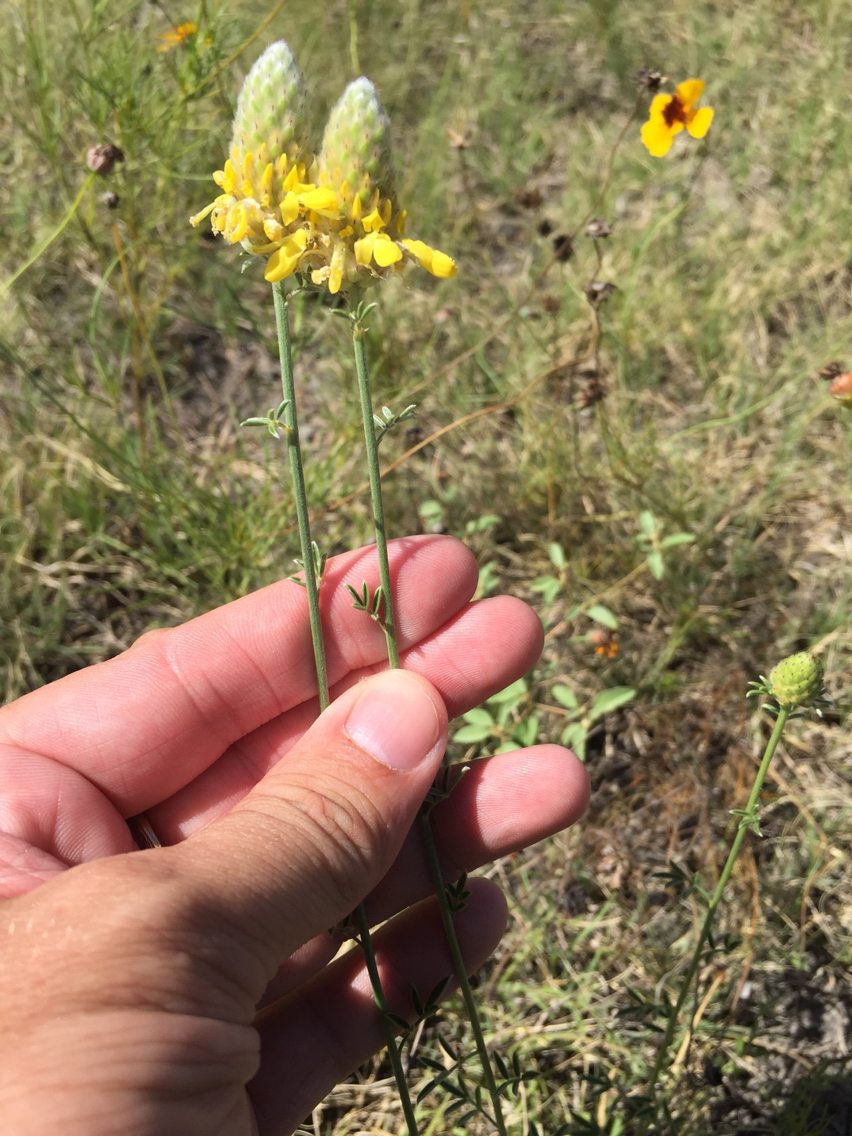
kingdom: Plantae
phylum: Tracheophyta
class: Magnoliopsida
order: Fabales
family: Fabaceae
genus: Dalea
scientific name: Dalea aurea
